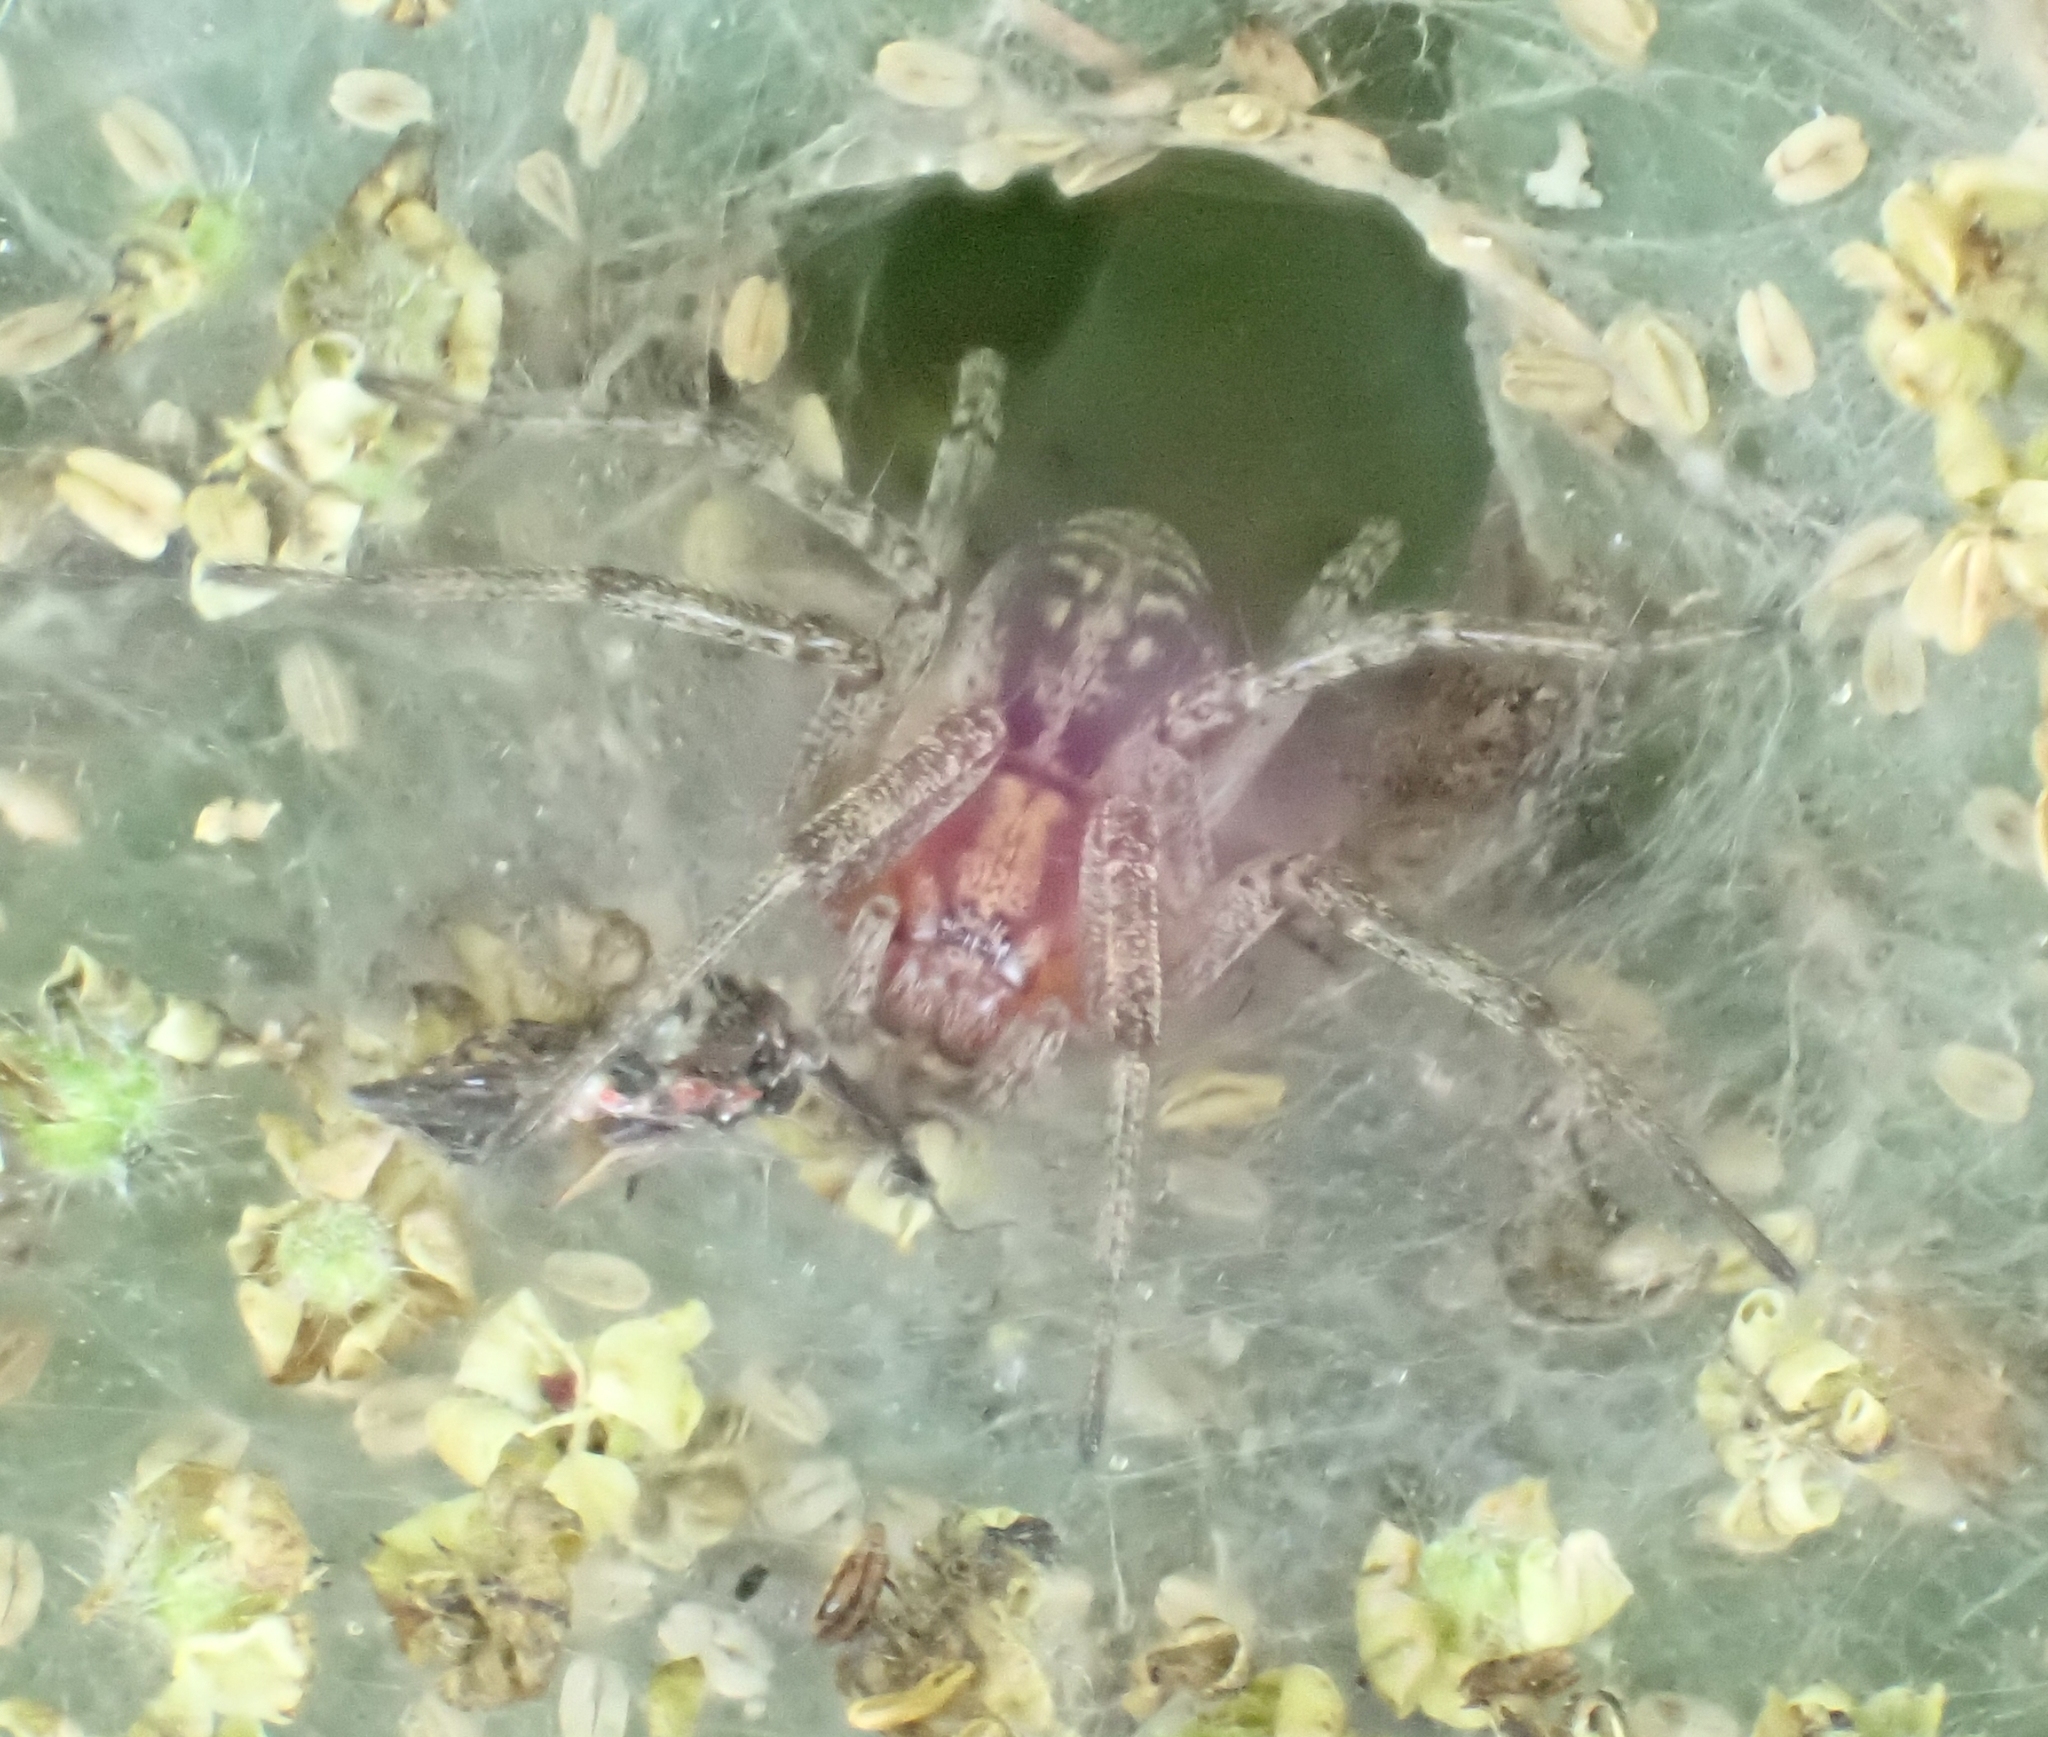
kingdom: Animalia
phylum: Arthropoda
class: Arachnida
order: Araneae
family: Agelenidae
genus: Agelena
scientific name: Agelena labyrinthica
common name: Labyrinth spider
